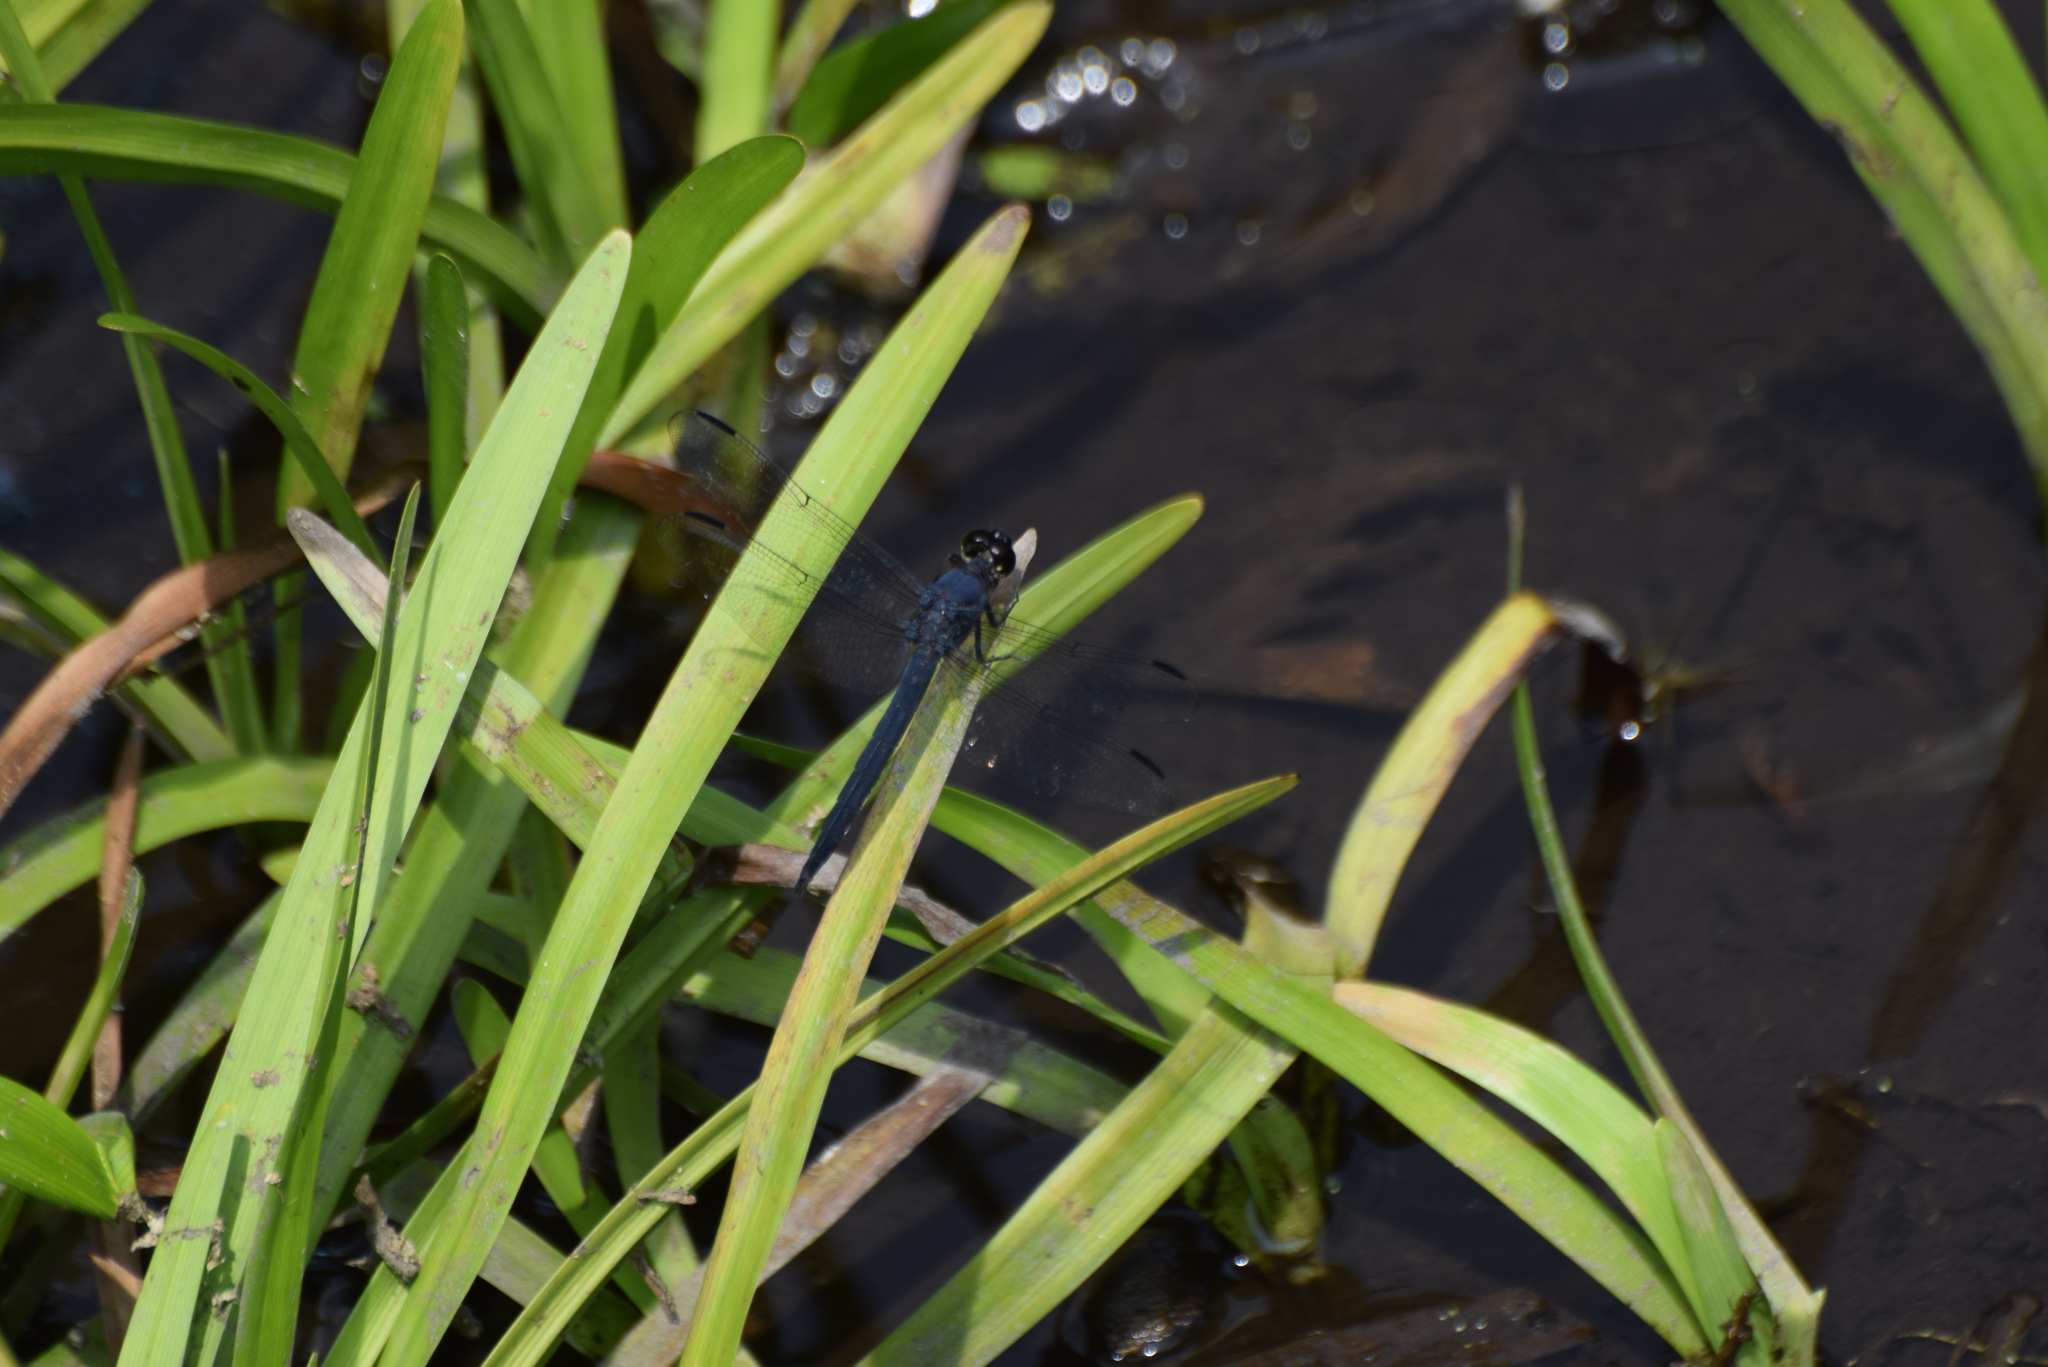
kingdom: Animalia
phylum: Arthropoda
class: Insecta
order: Odonata
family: Libellulidae
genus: Libellula
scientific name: Libellula incesta
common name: Slaty skimmer
